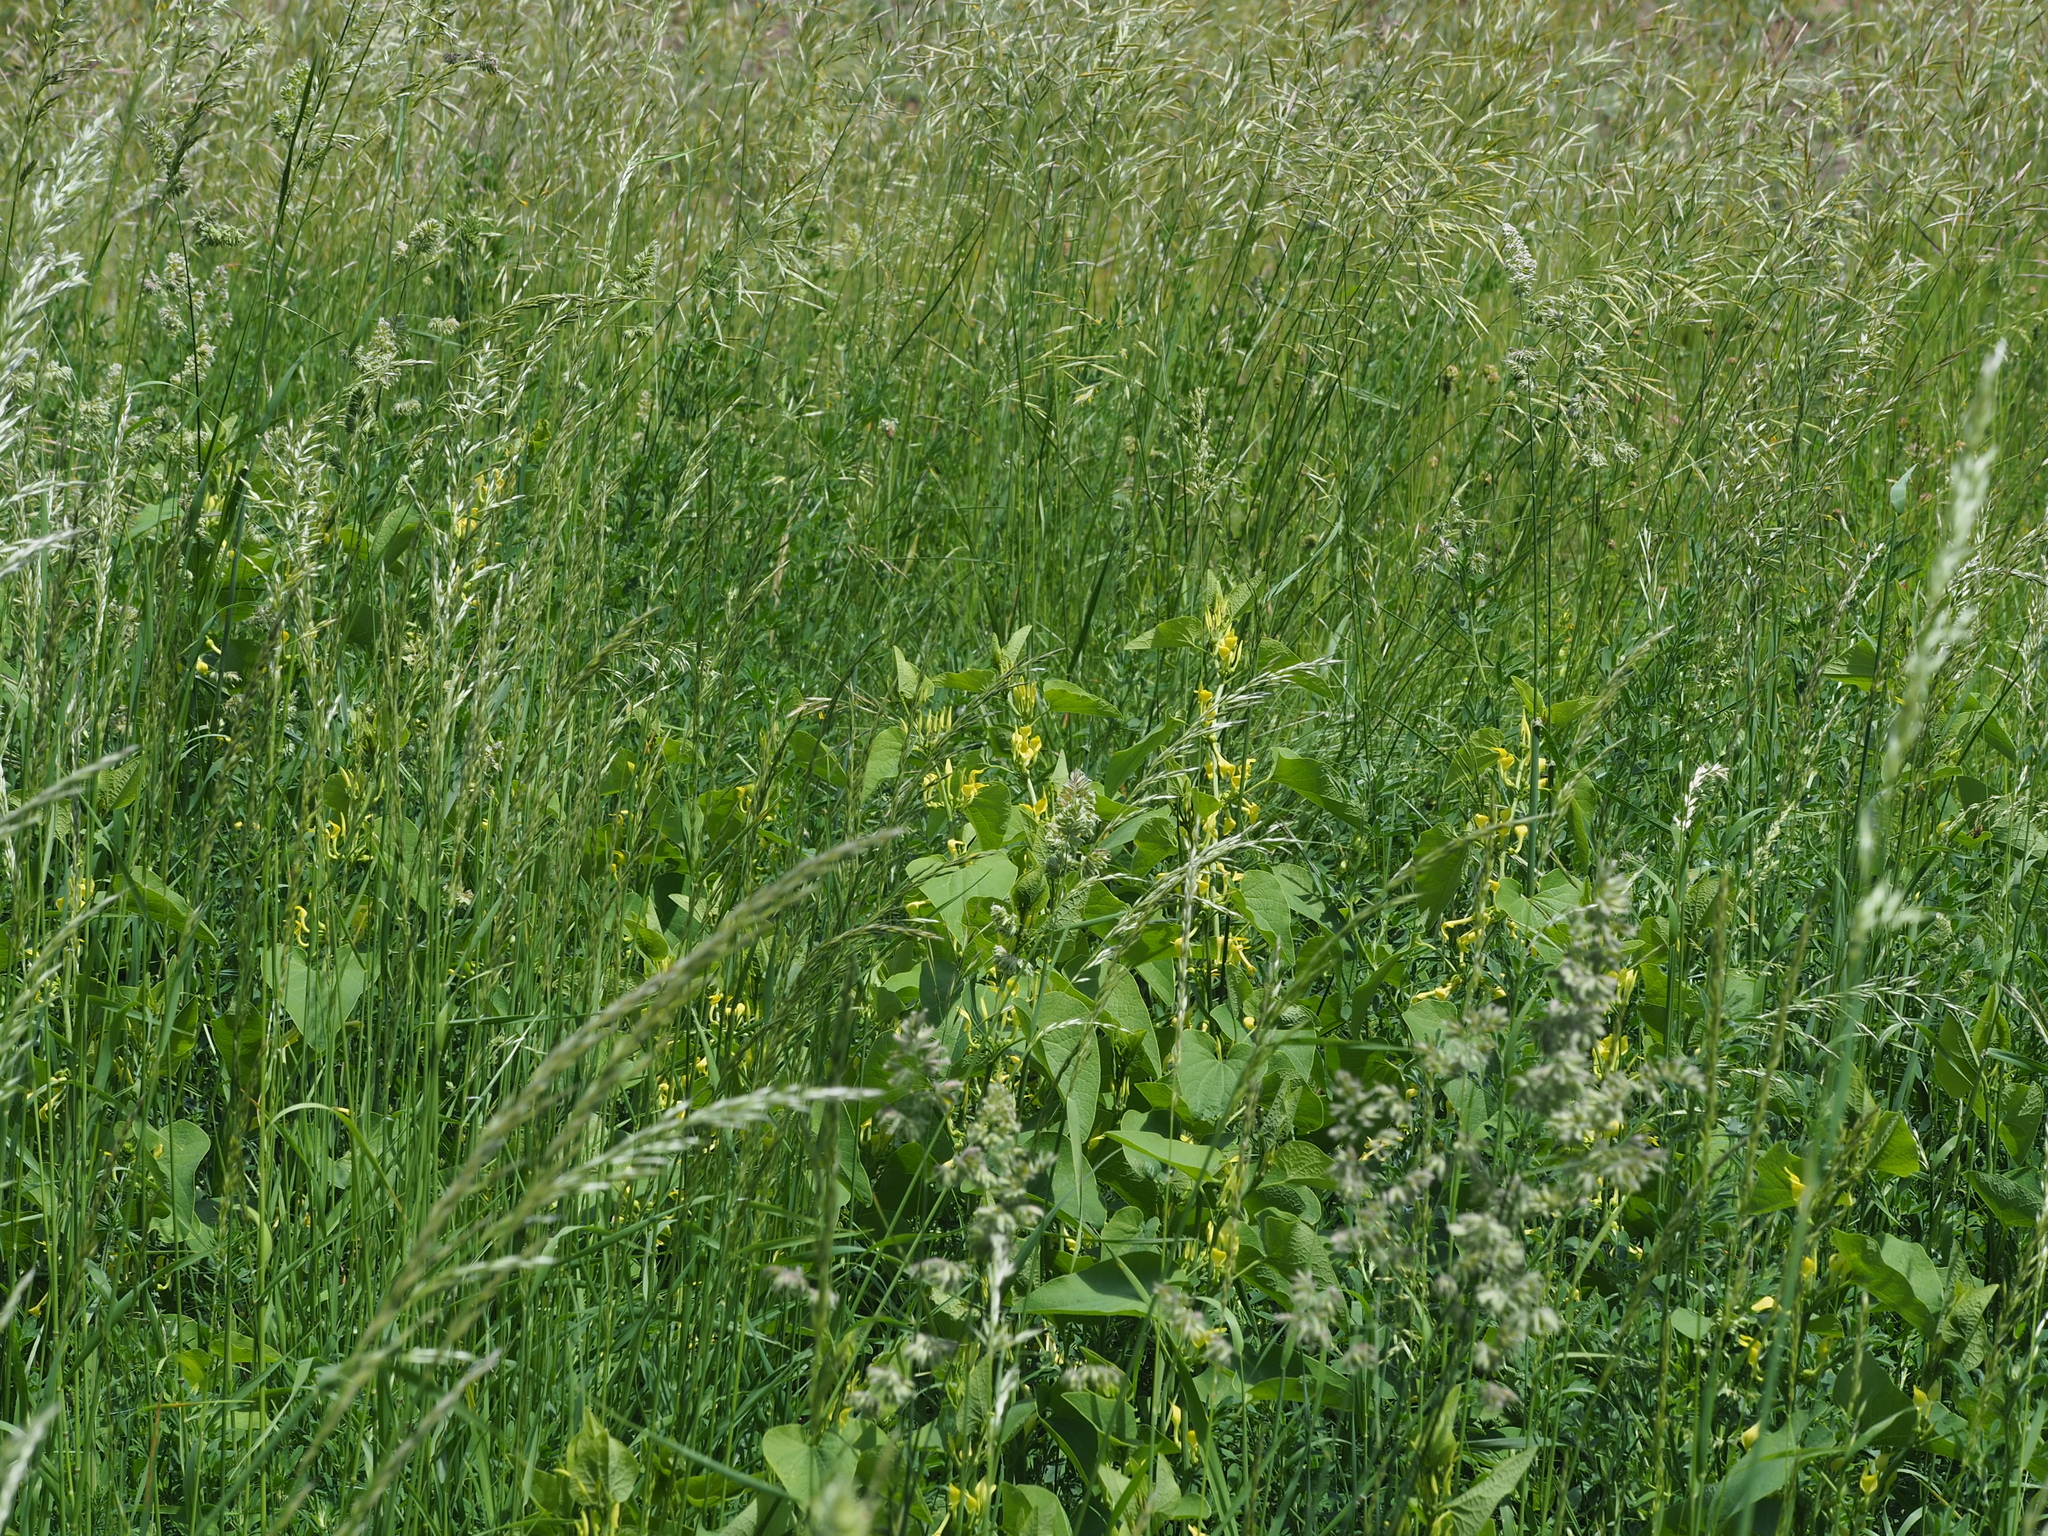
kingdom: Plantae
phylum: Tracheophyta
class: Magnoliopsida
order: Piperales
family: Aristolochiaceae
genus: Aristolochia
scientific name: Aristolochia clematitis
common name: Birthwort
